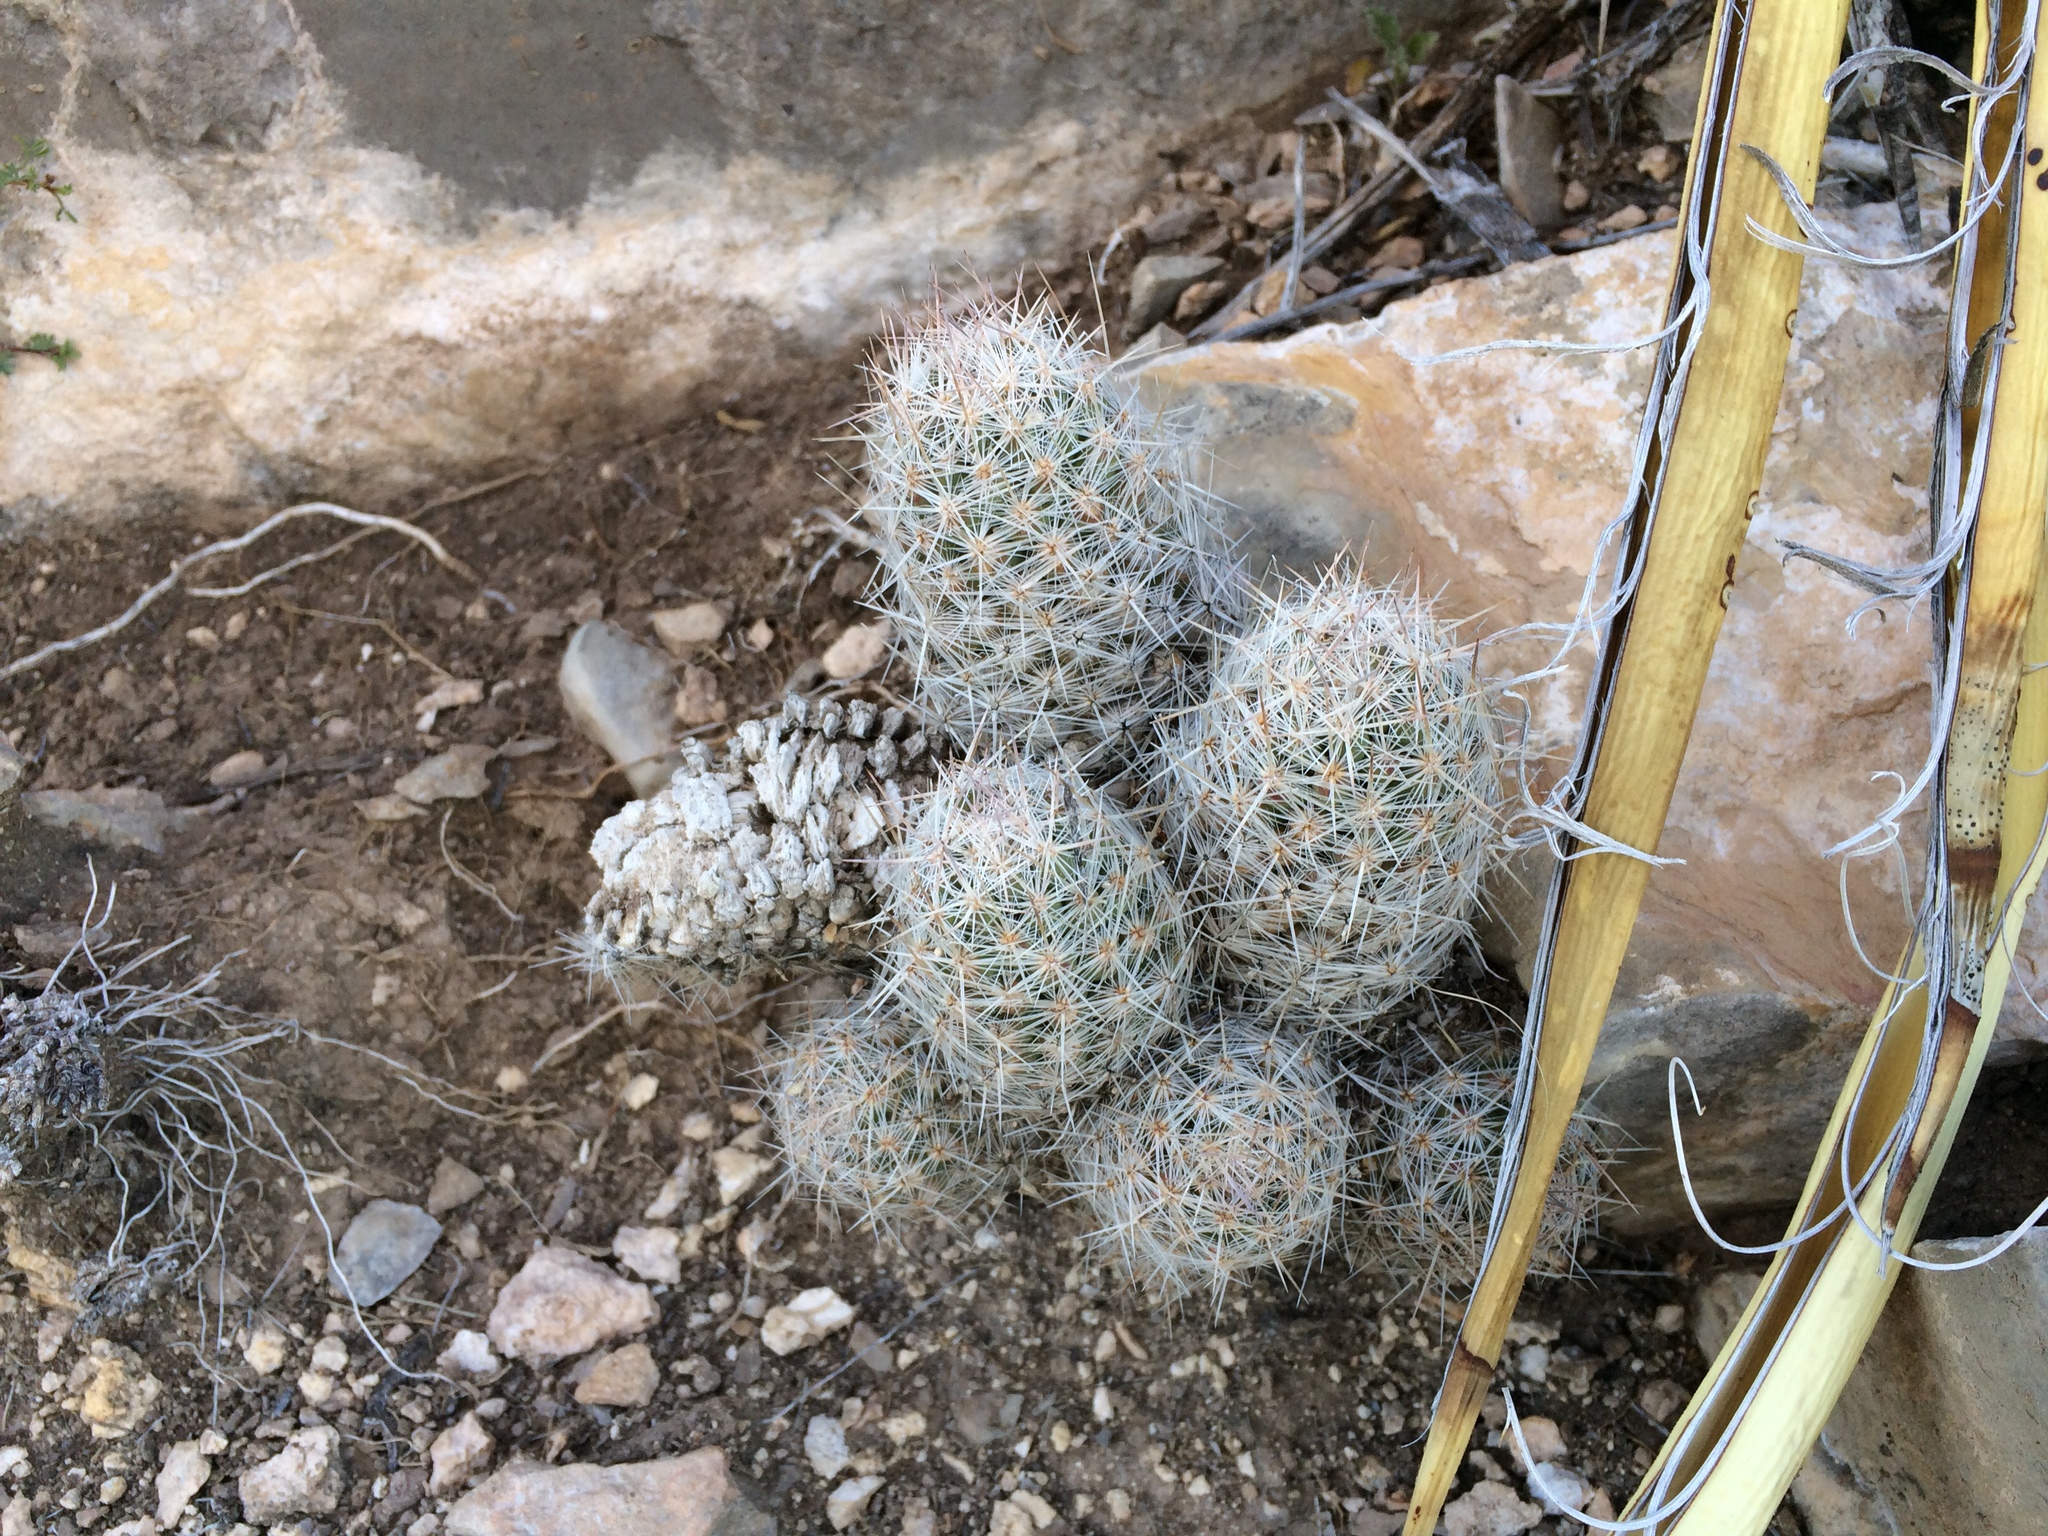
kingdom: Plantae
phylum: Tracheophyta
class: Magnoliopsida
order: Caryophyllales
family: Cactaceae
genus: Pelecyphora
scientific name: Pelecyphora tuberculosa
